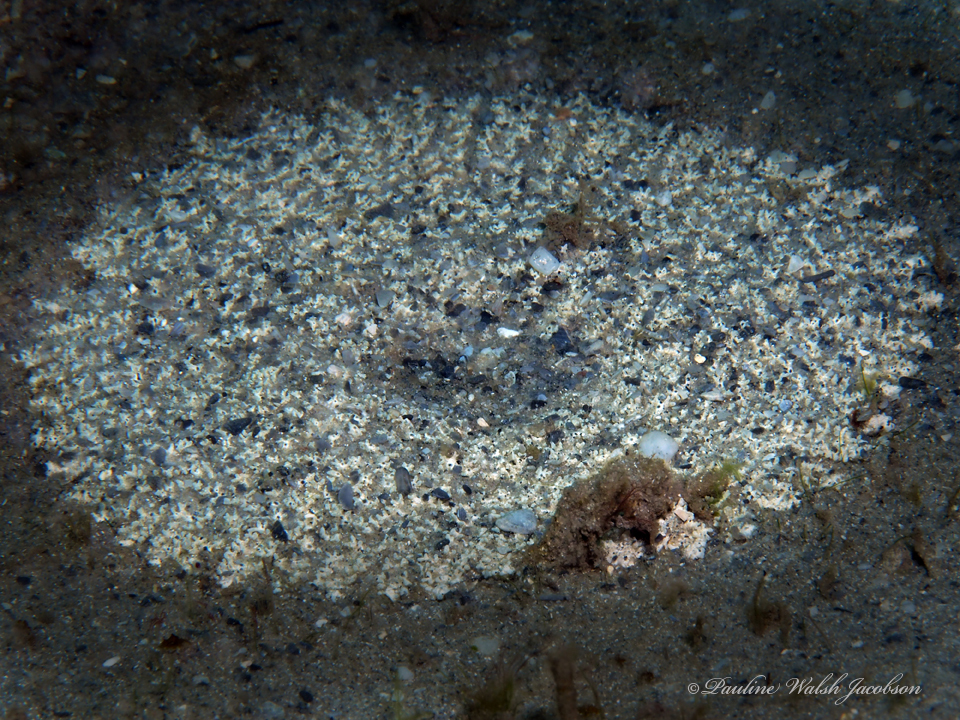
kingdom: Animalia
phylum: Cnidaria
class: Anthozoa
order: Actiniaria
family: Actiniidae
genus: Actinostella
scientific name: Actinostella flosculifera
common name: Collared sand anemone
